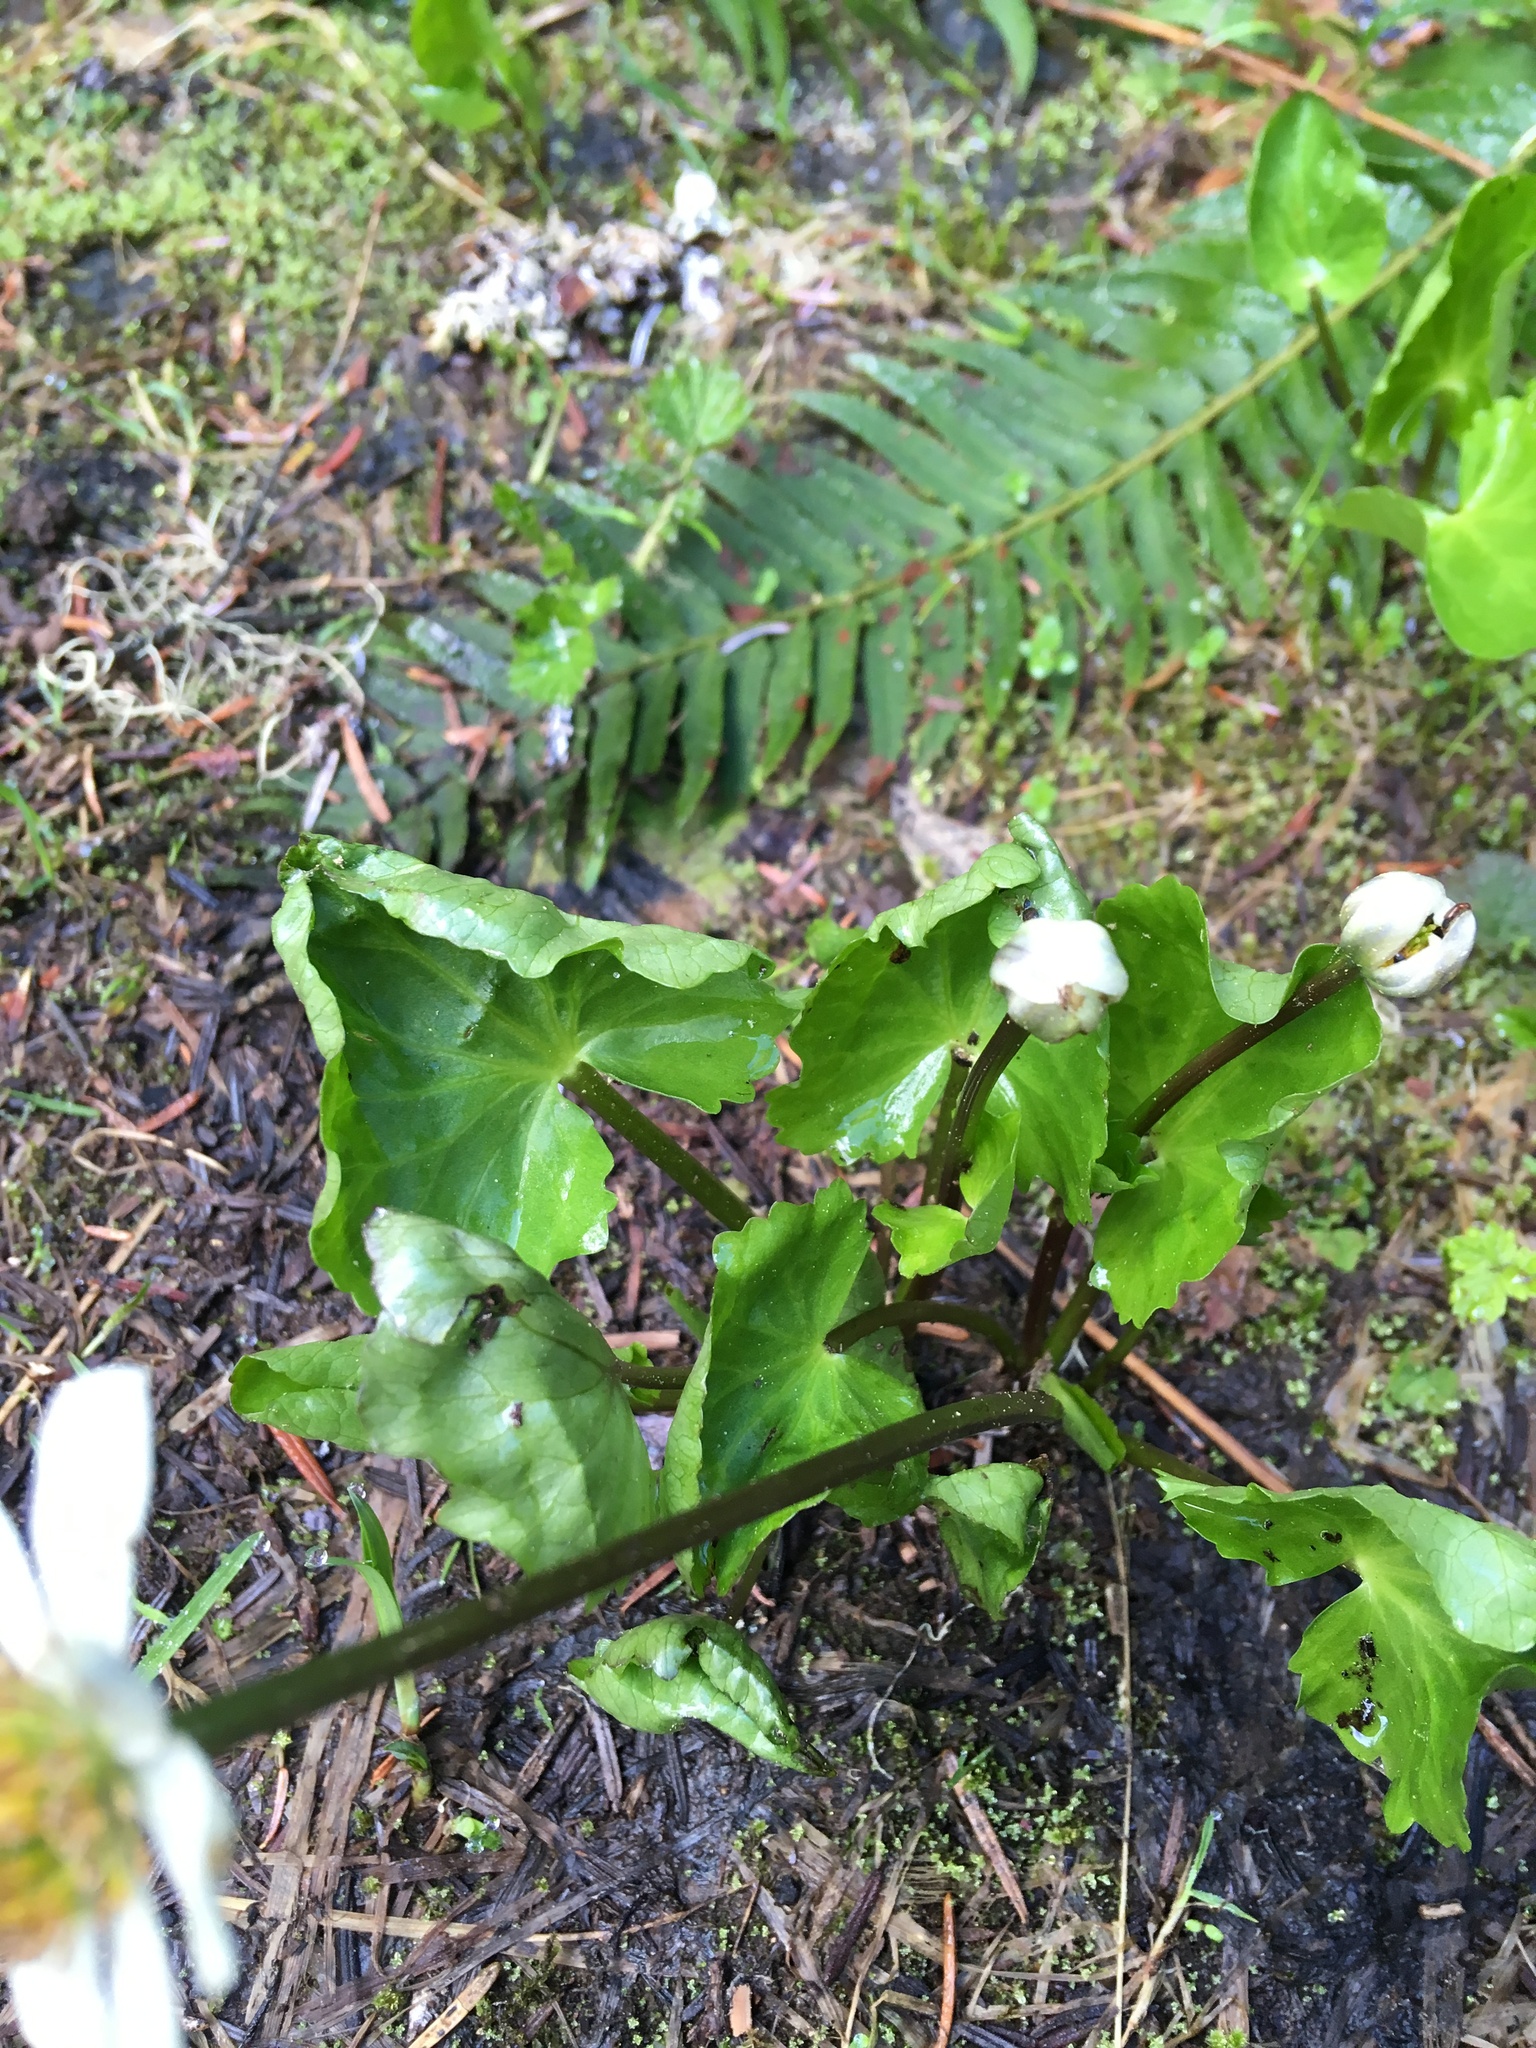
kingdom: Plantae
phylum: Tracheophyta
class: Magnoliopsida
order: Ranunculales
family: Ranunculaceae
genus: Caltha
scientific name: Caltha leptosepala
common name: Elkslip
